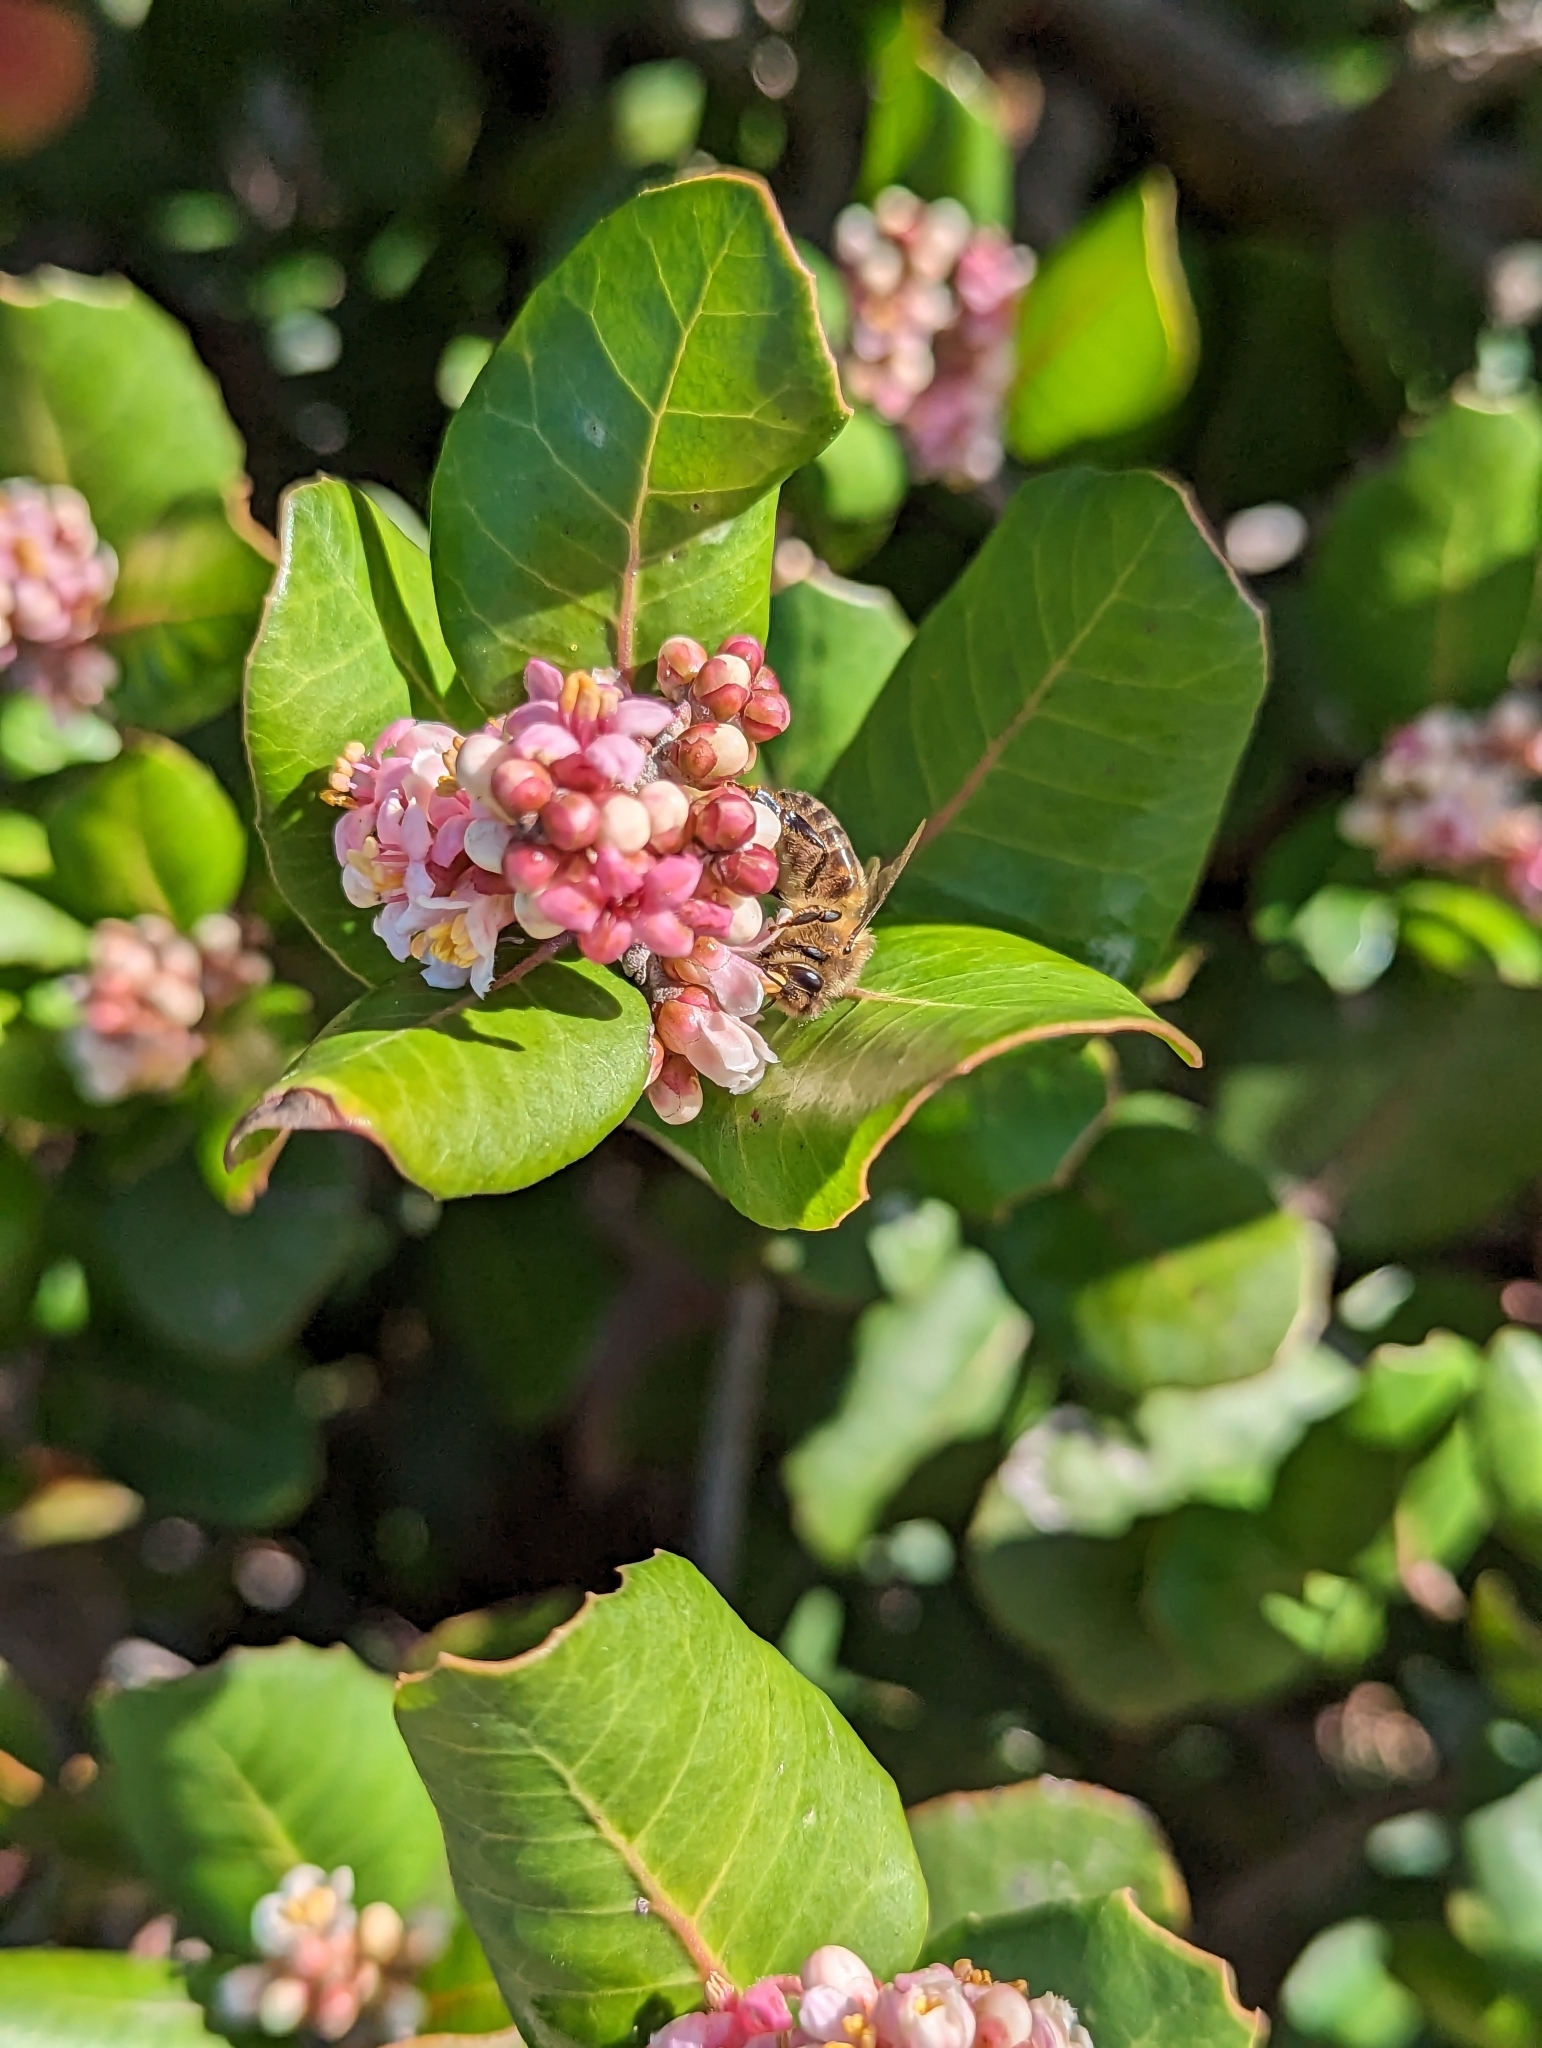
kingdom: Animalia
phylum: Arthropoda
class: Insecta
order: Hymenoptera
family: Apidae
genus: Apis
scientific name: Apis mellifera
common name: Honey bee
